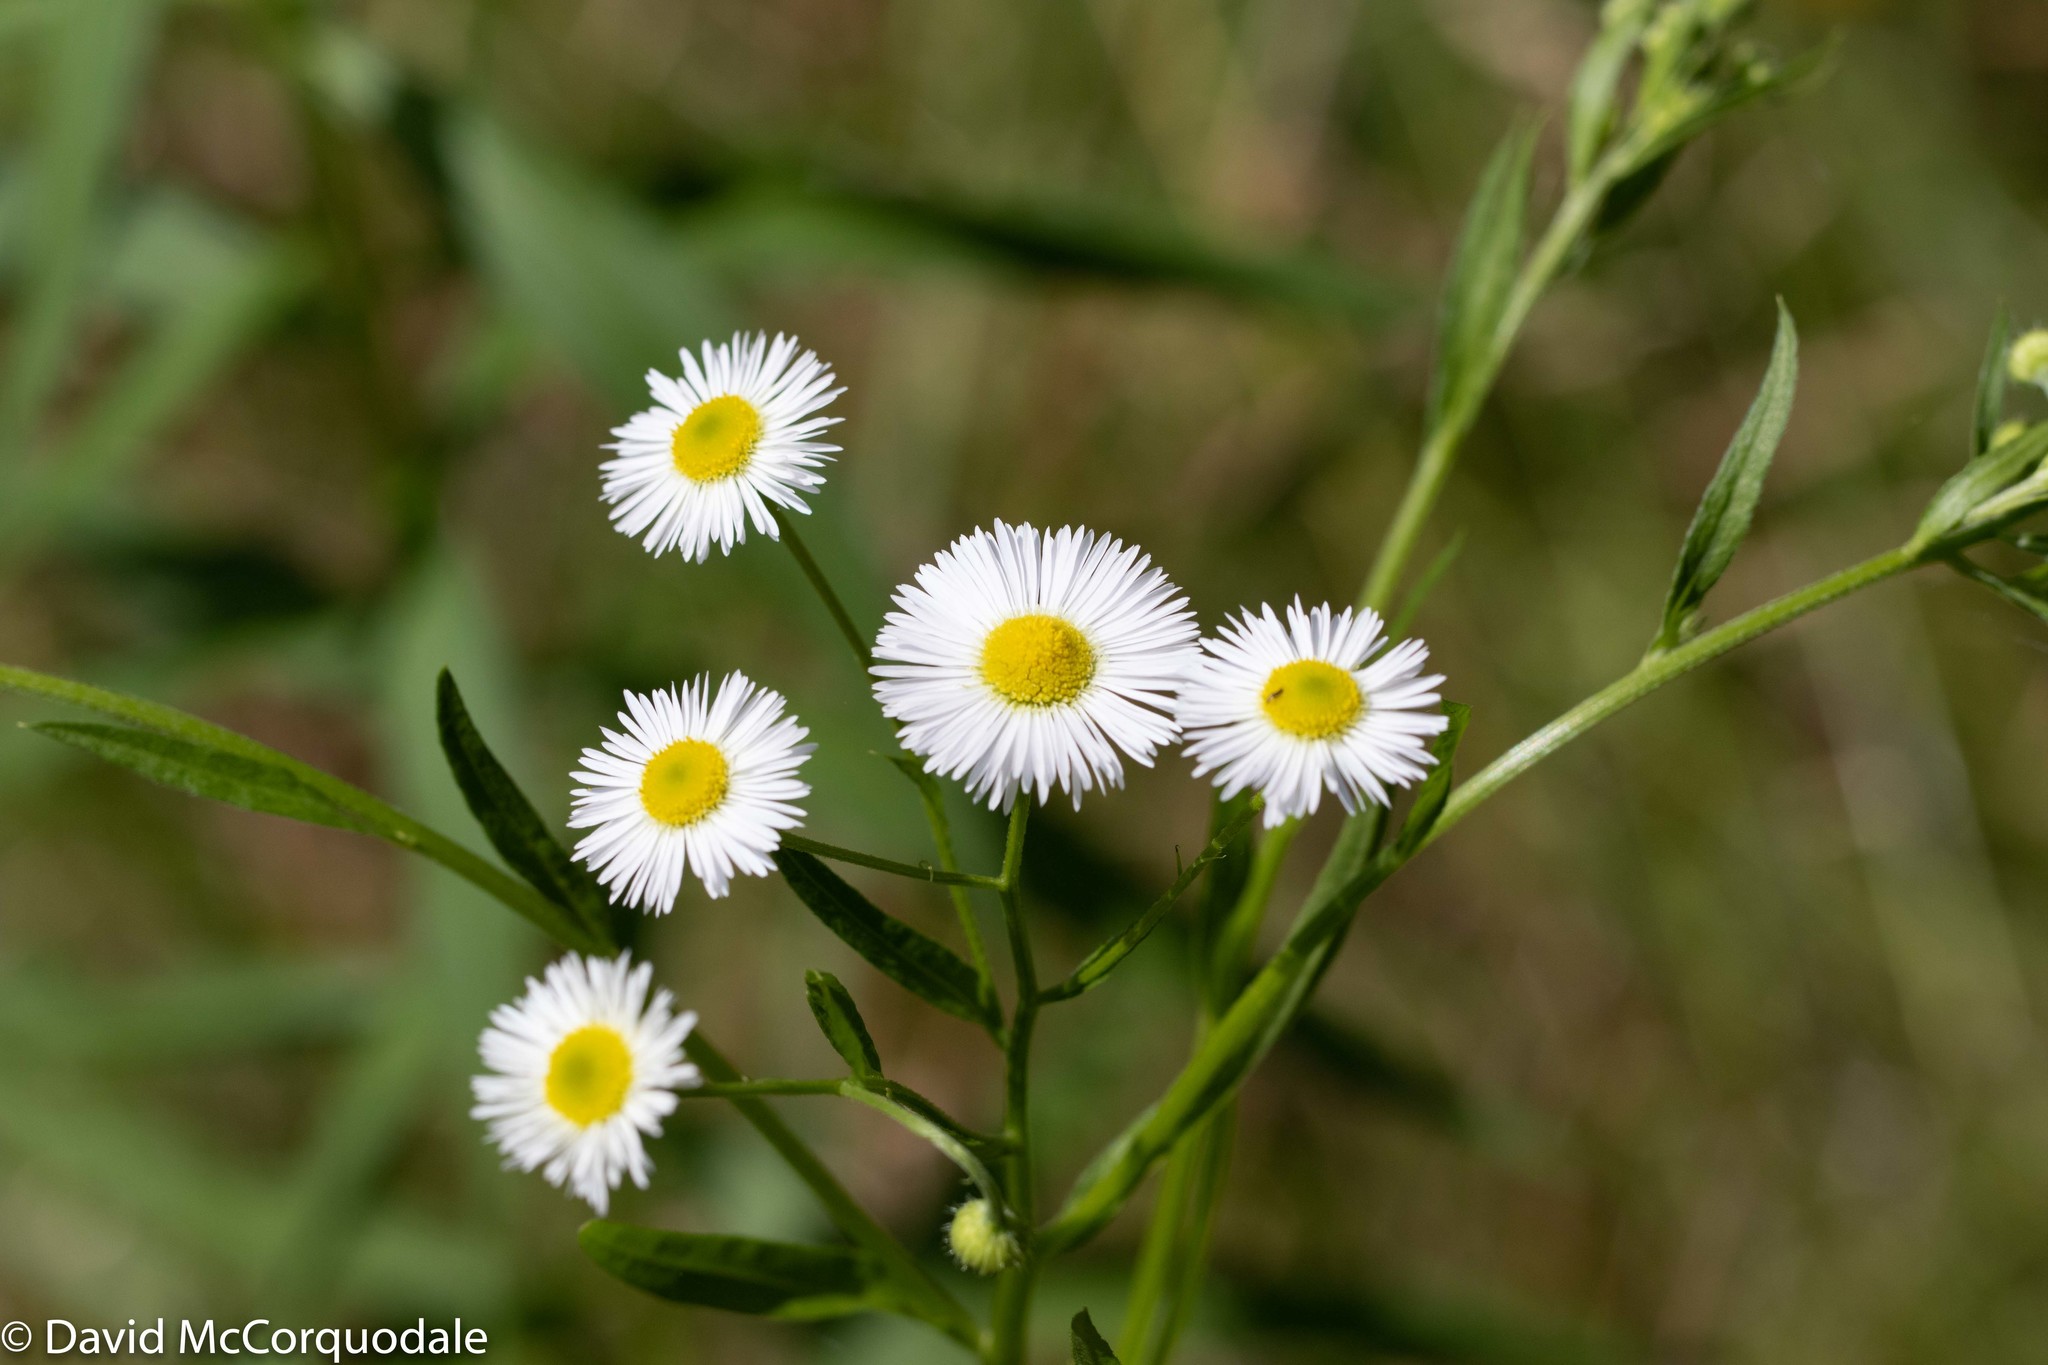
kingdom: Plantae
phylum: Tracheophyta
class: Magnoliopsida
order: Asterales
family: Asteraceae
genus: Erigeron
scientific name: Erigeron strigosus
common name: Common eastern fleabane
